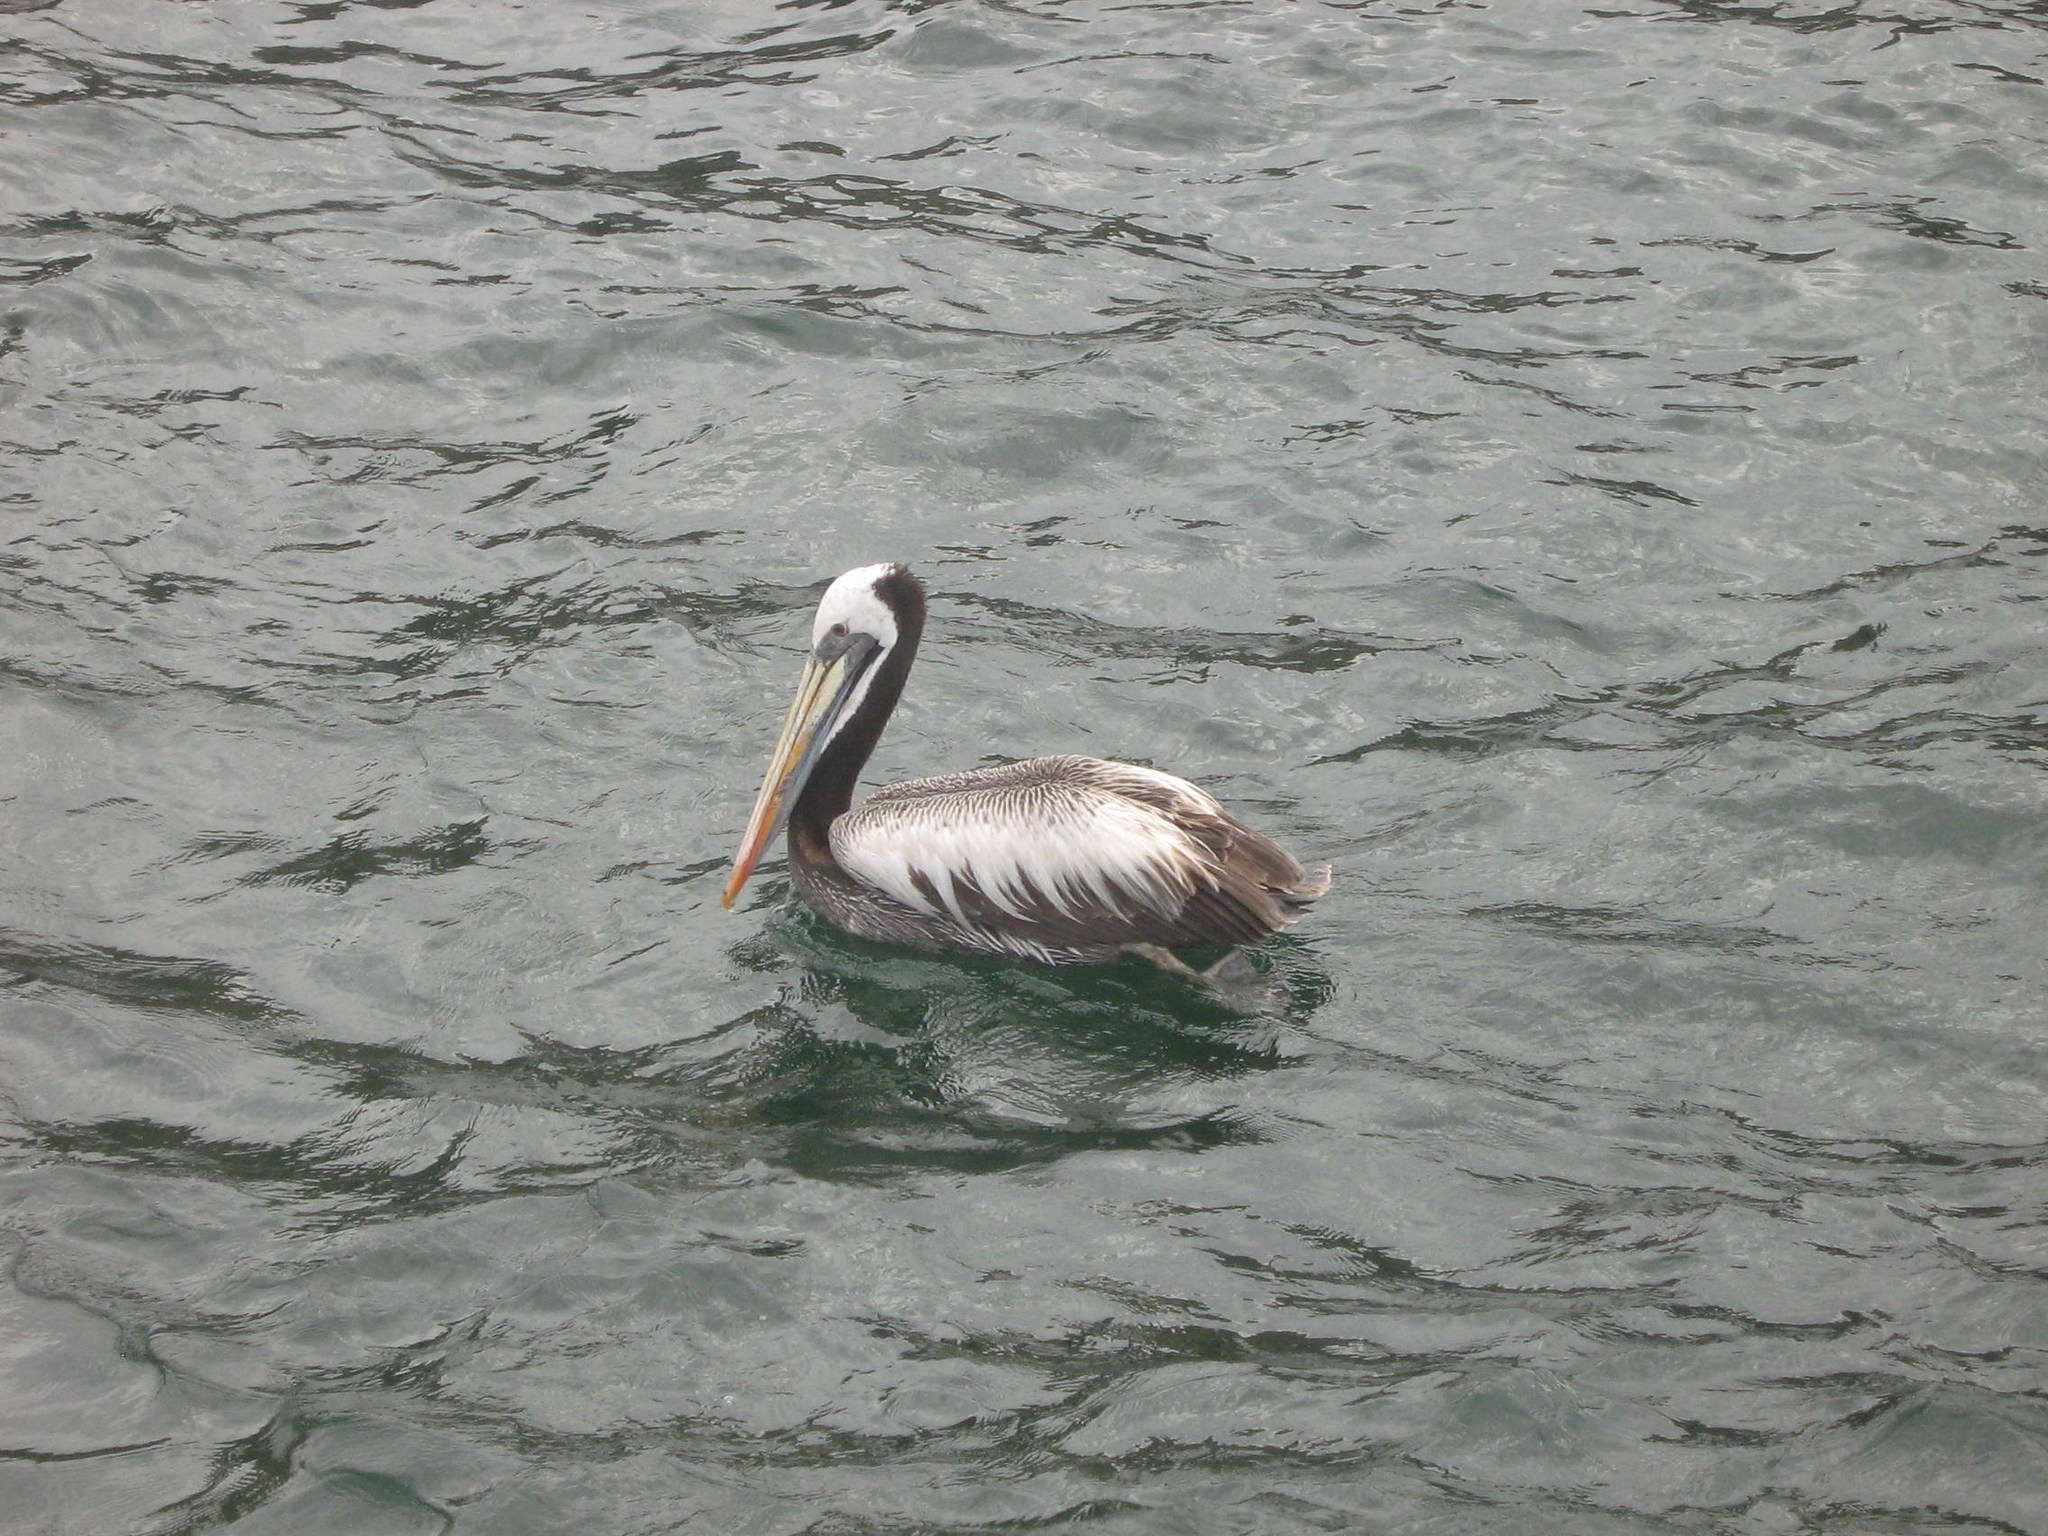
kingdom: Animalia
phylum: Chordata
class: Aves
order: Pelecaniformes
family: Pelecanidae
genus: Pelecanus
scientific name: Pelecanus thagus
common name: Peruvian pelican
